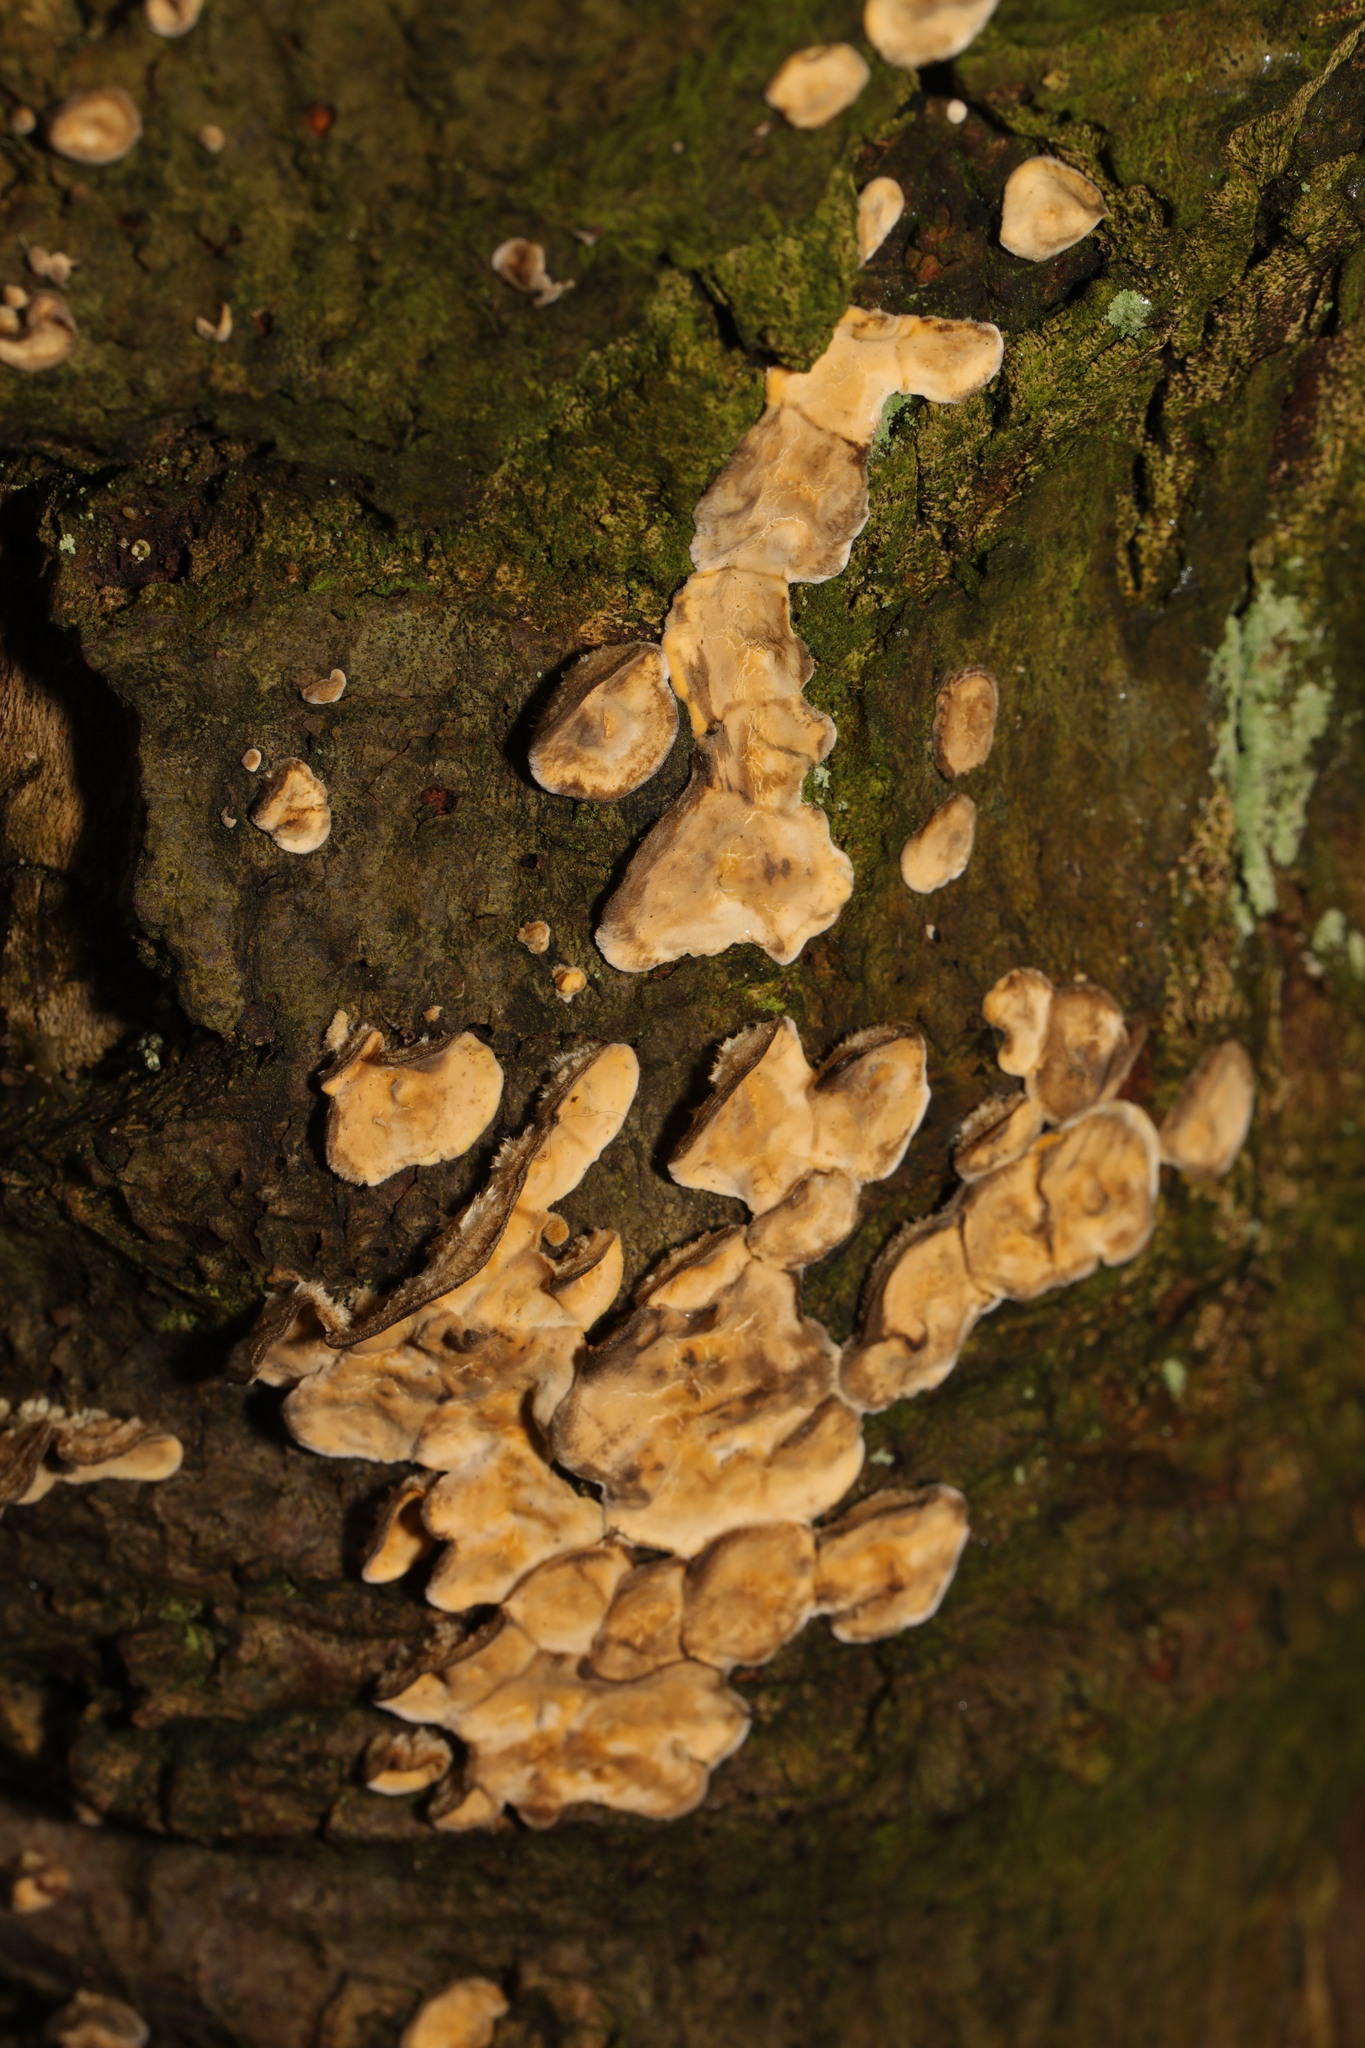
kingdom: Fungi
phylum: Basidiomycota
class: Agaricomycetes
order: Russulales
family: Stereaceae
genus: Stereum
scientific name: Stereum hirsutum
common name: Hairy curtain crust
